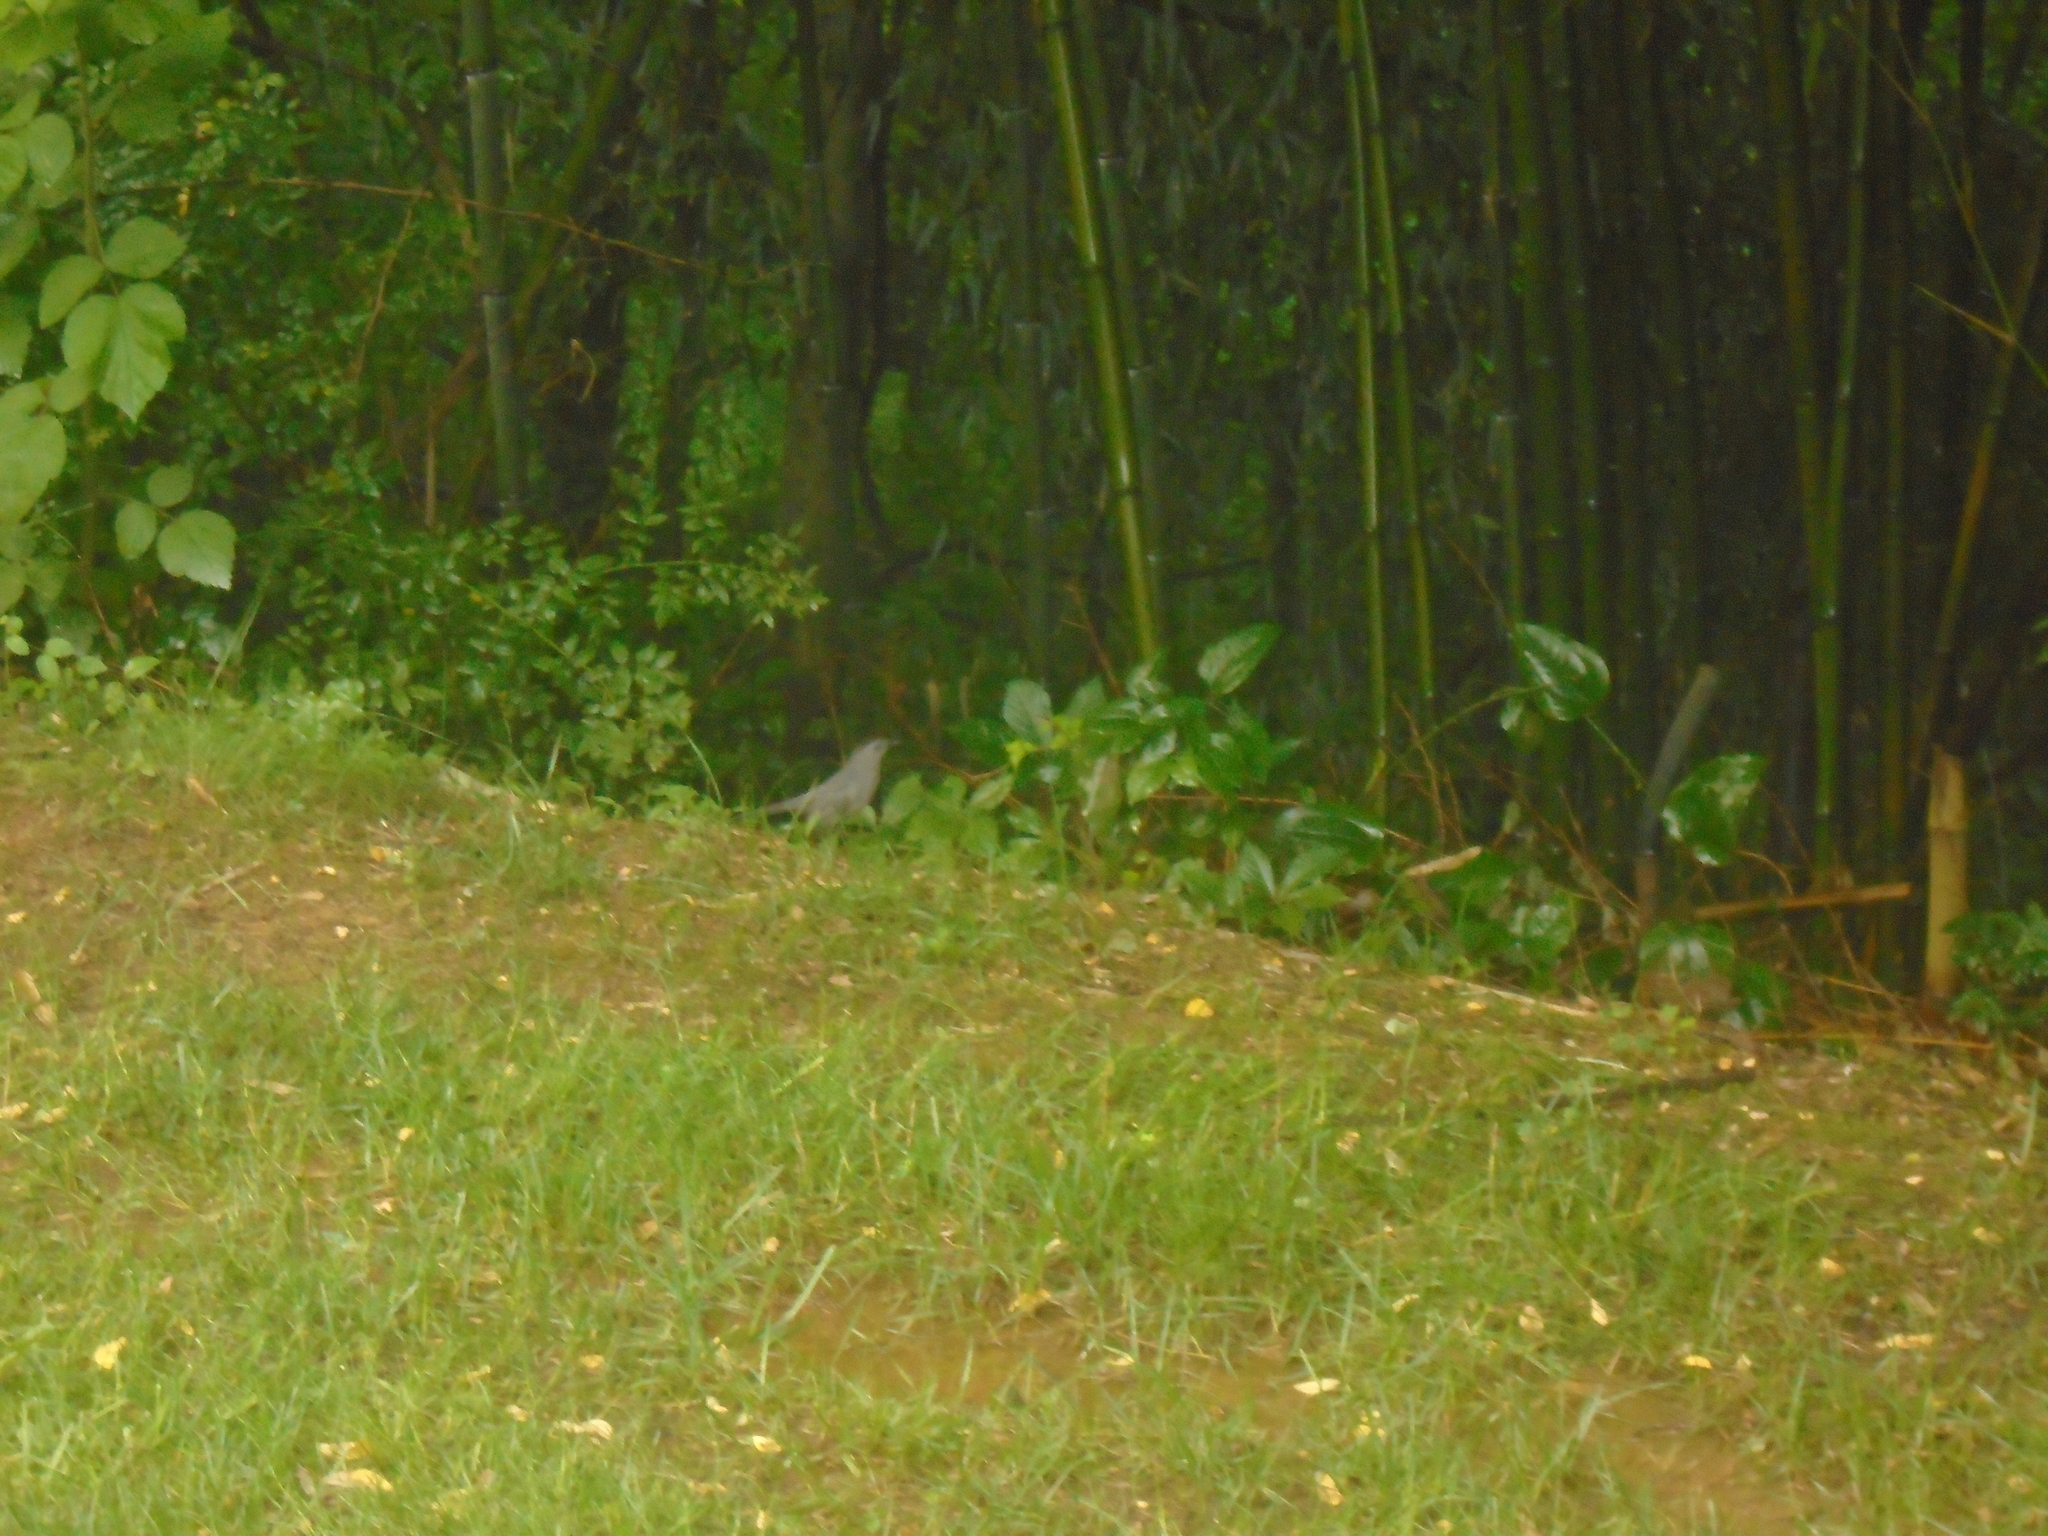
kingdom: Animalia
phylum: Chordata
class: Aves
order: Passeriformes
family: Mimidae
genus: Dumetella
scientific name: Dumetella carolinensis
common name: Gray catbird
